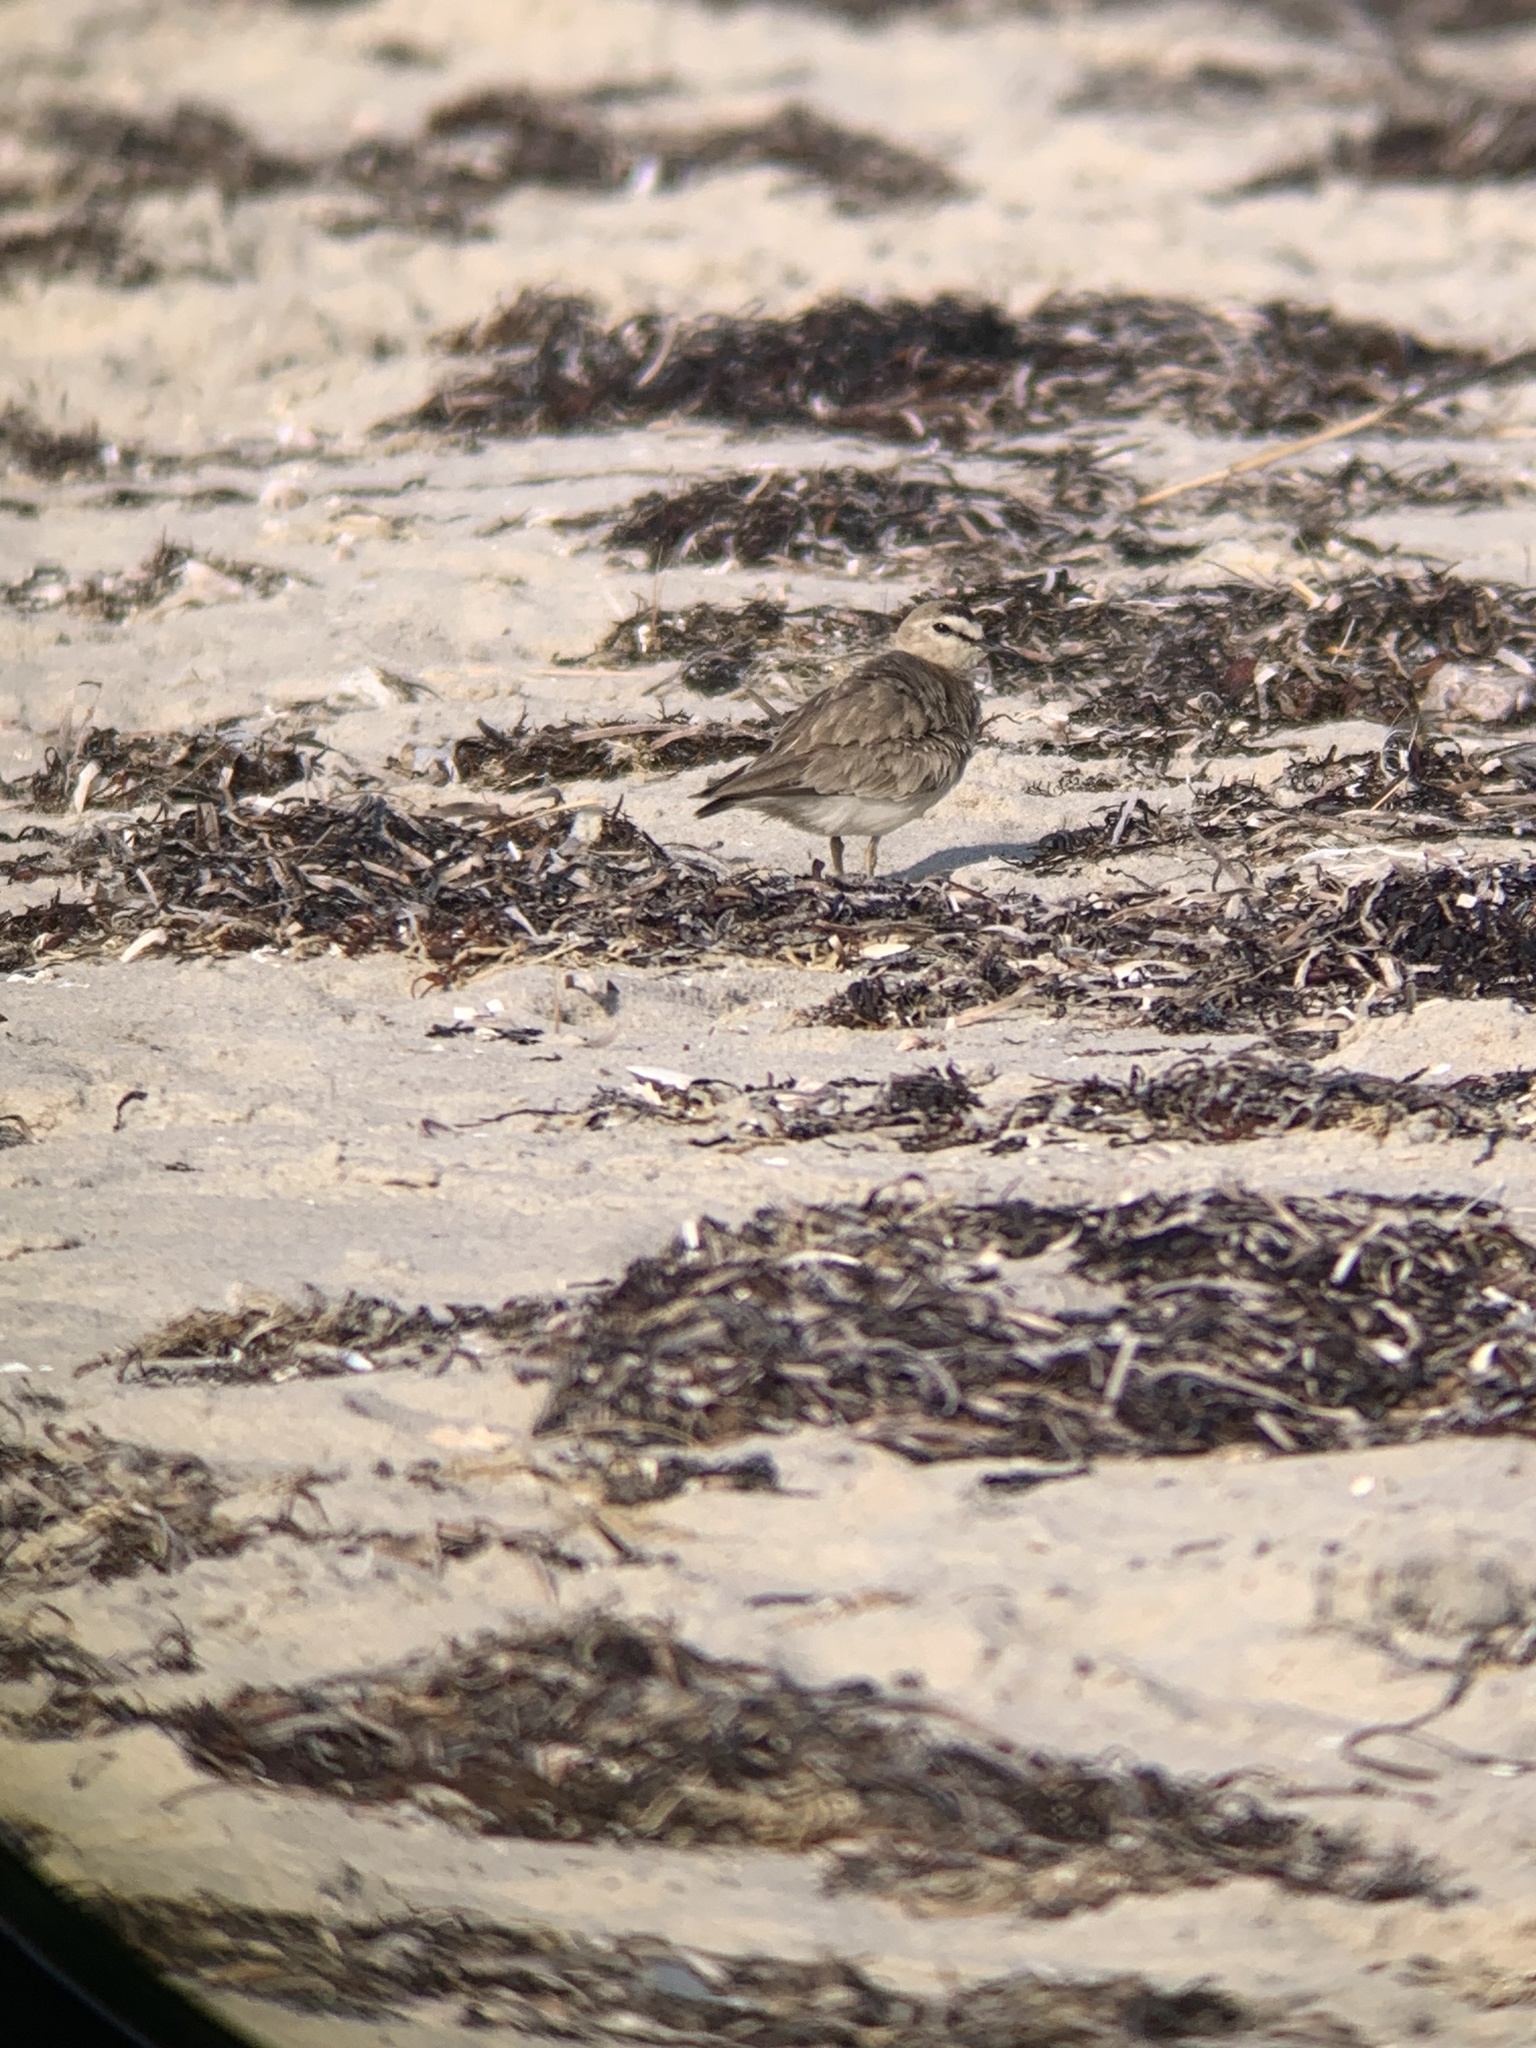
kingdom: Animalia
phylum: Chordata
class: Aves
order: Charadriiformes
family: Charadriidae
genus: Anarhynchus
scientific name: Anarhynchus
